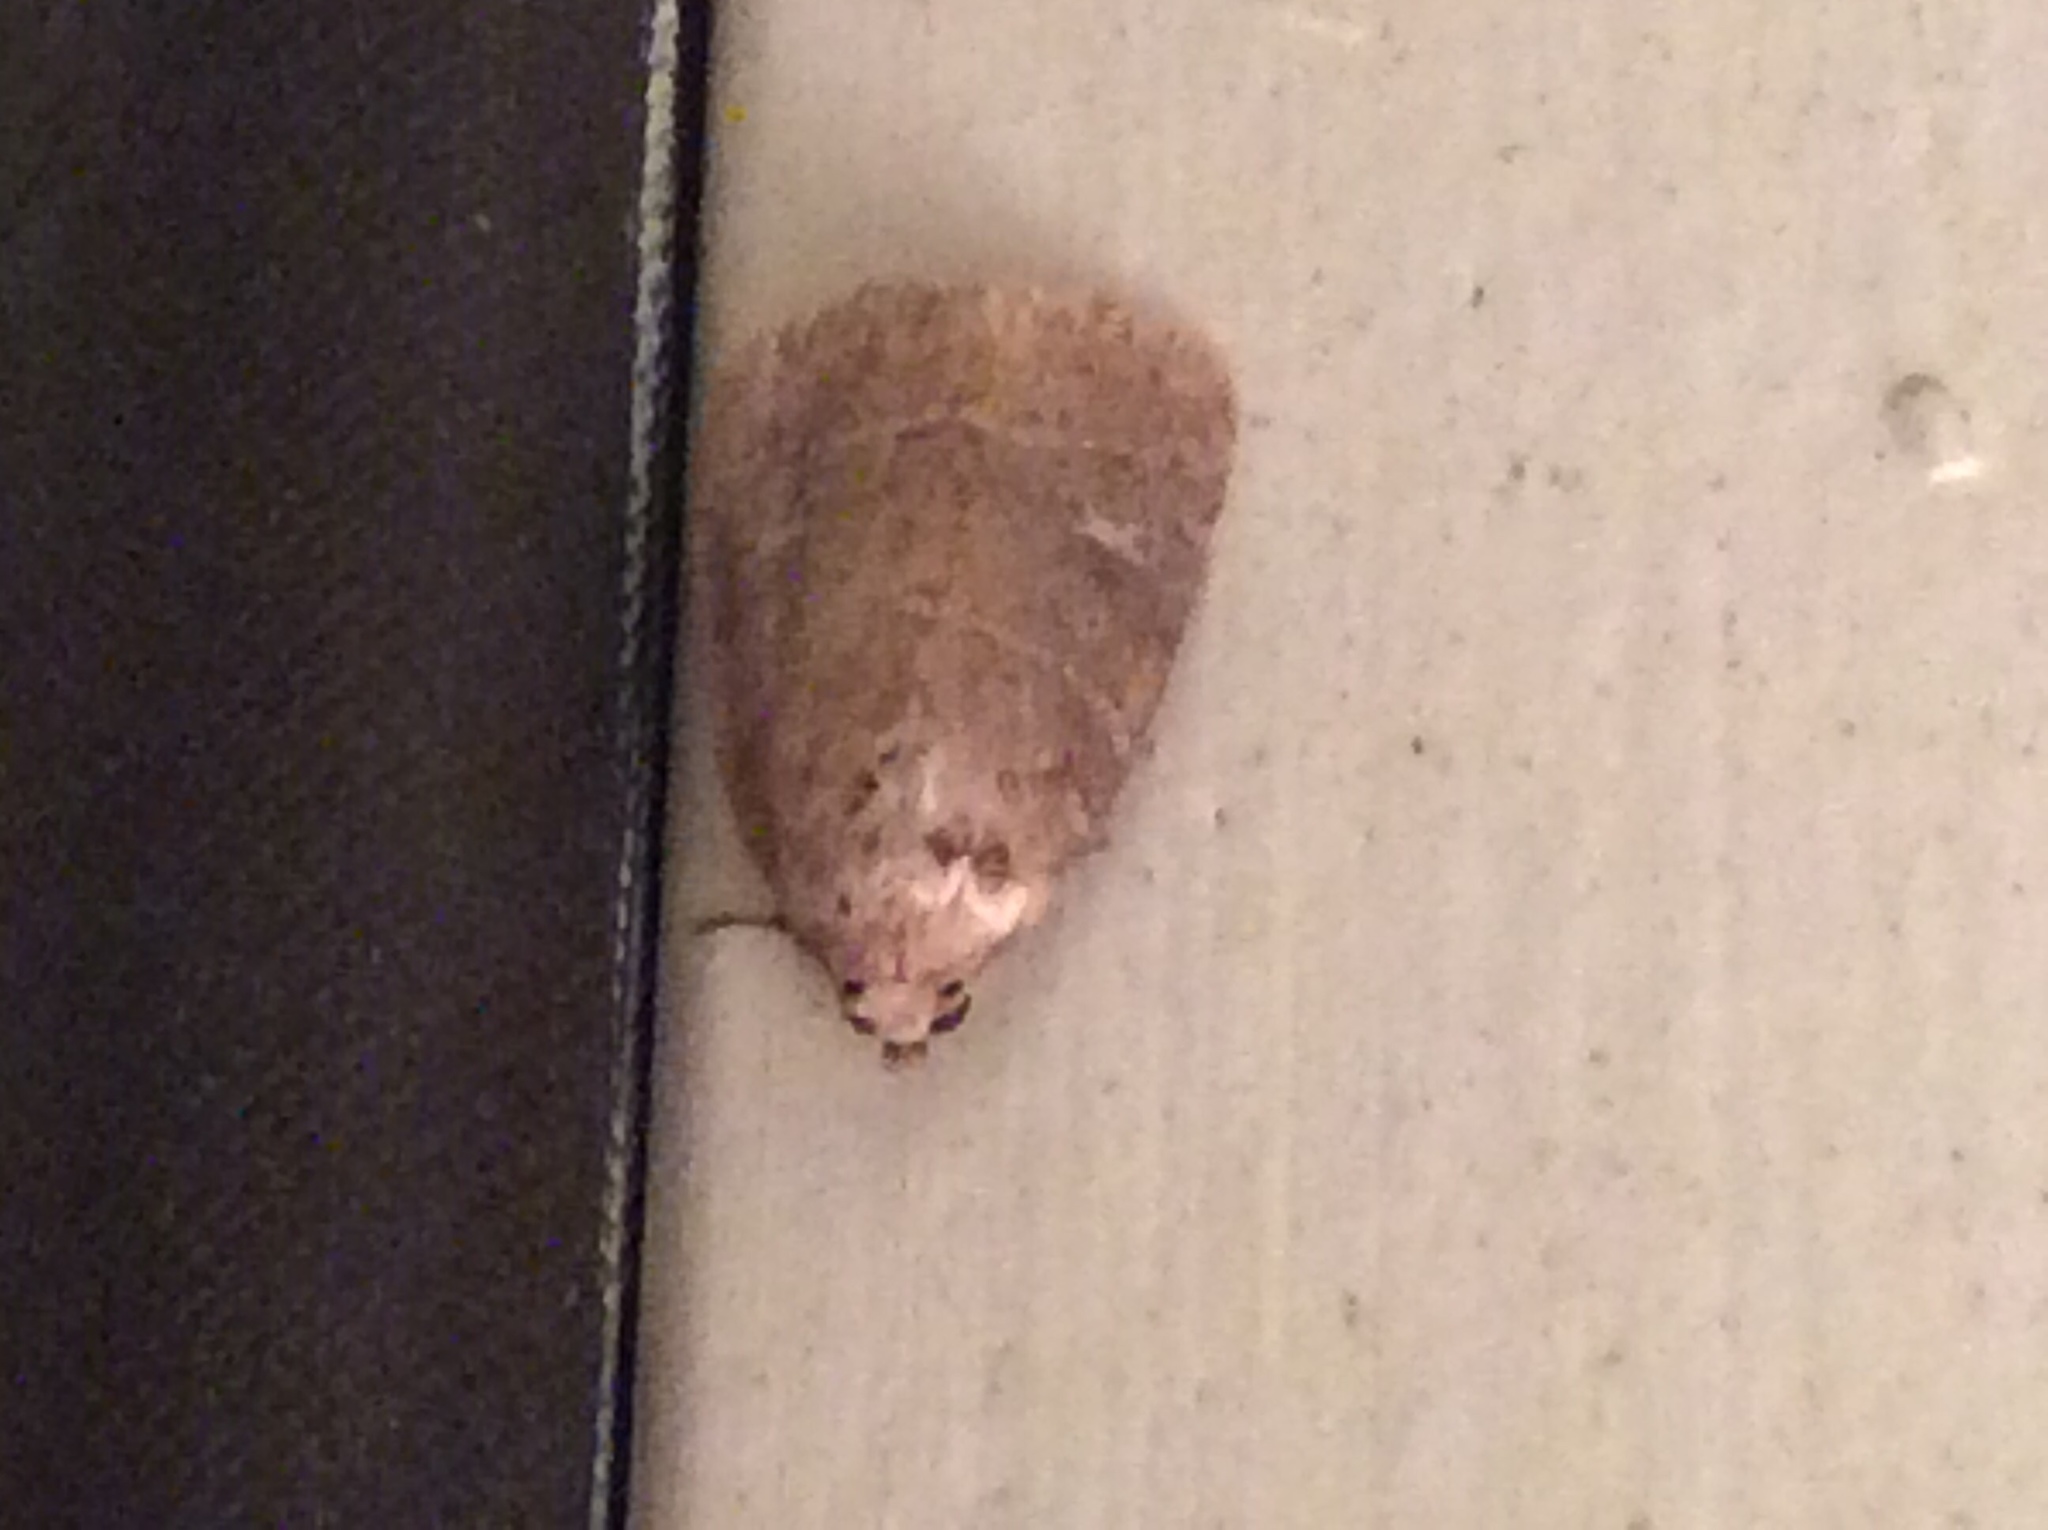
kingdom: Animalia
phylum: Arthropoda
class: Insecta
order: Lepidoptera
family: Noctuidae
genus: Elaphria
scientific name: Elaphria grata
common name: Grateful midget moth
